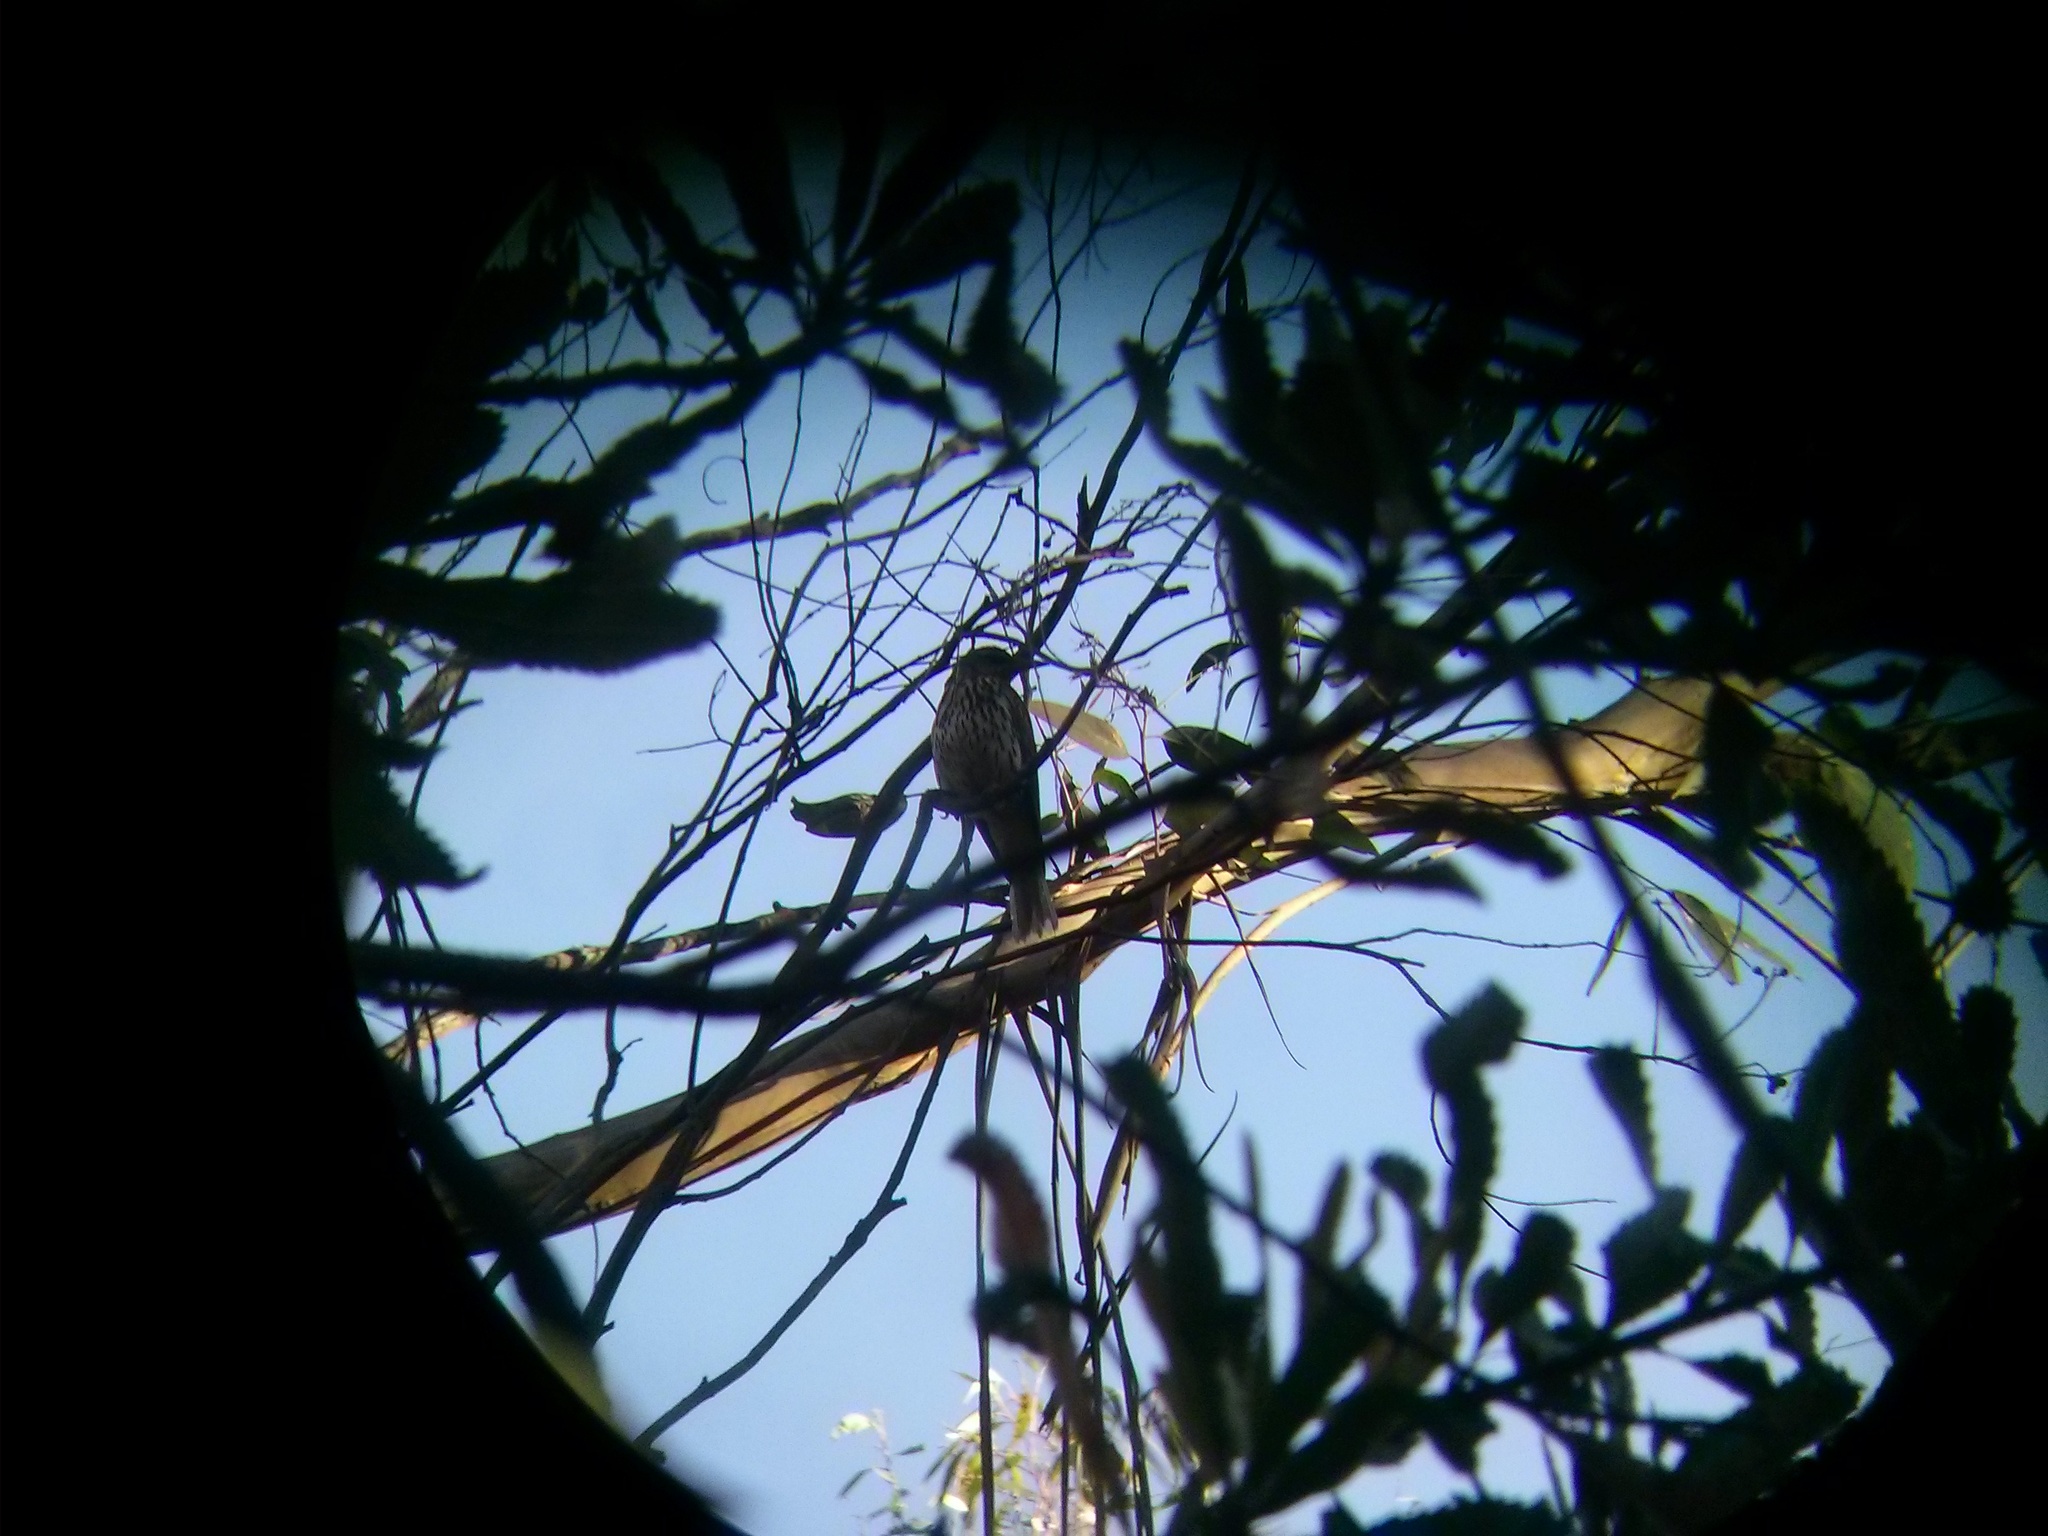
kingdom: Animalia
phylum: Chordata
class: Aves
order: Passeriformes
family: Oriolidae
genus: Oriolus
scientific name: Oriolus sagittatus
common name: Olive-backed oriole
